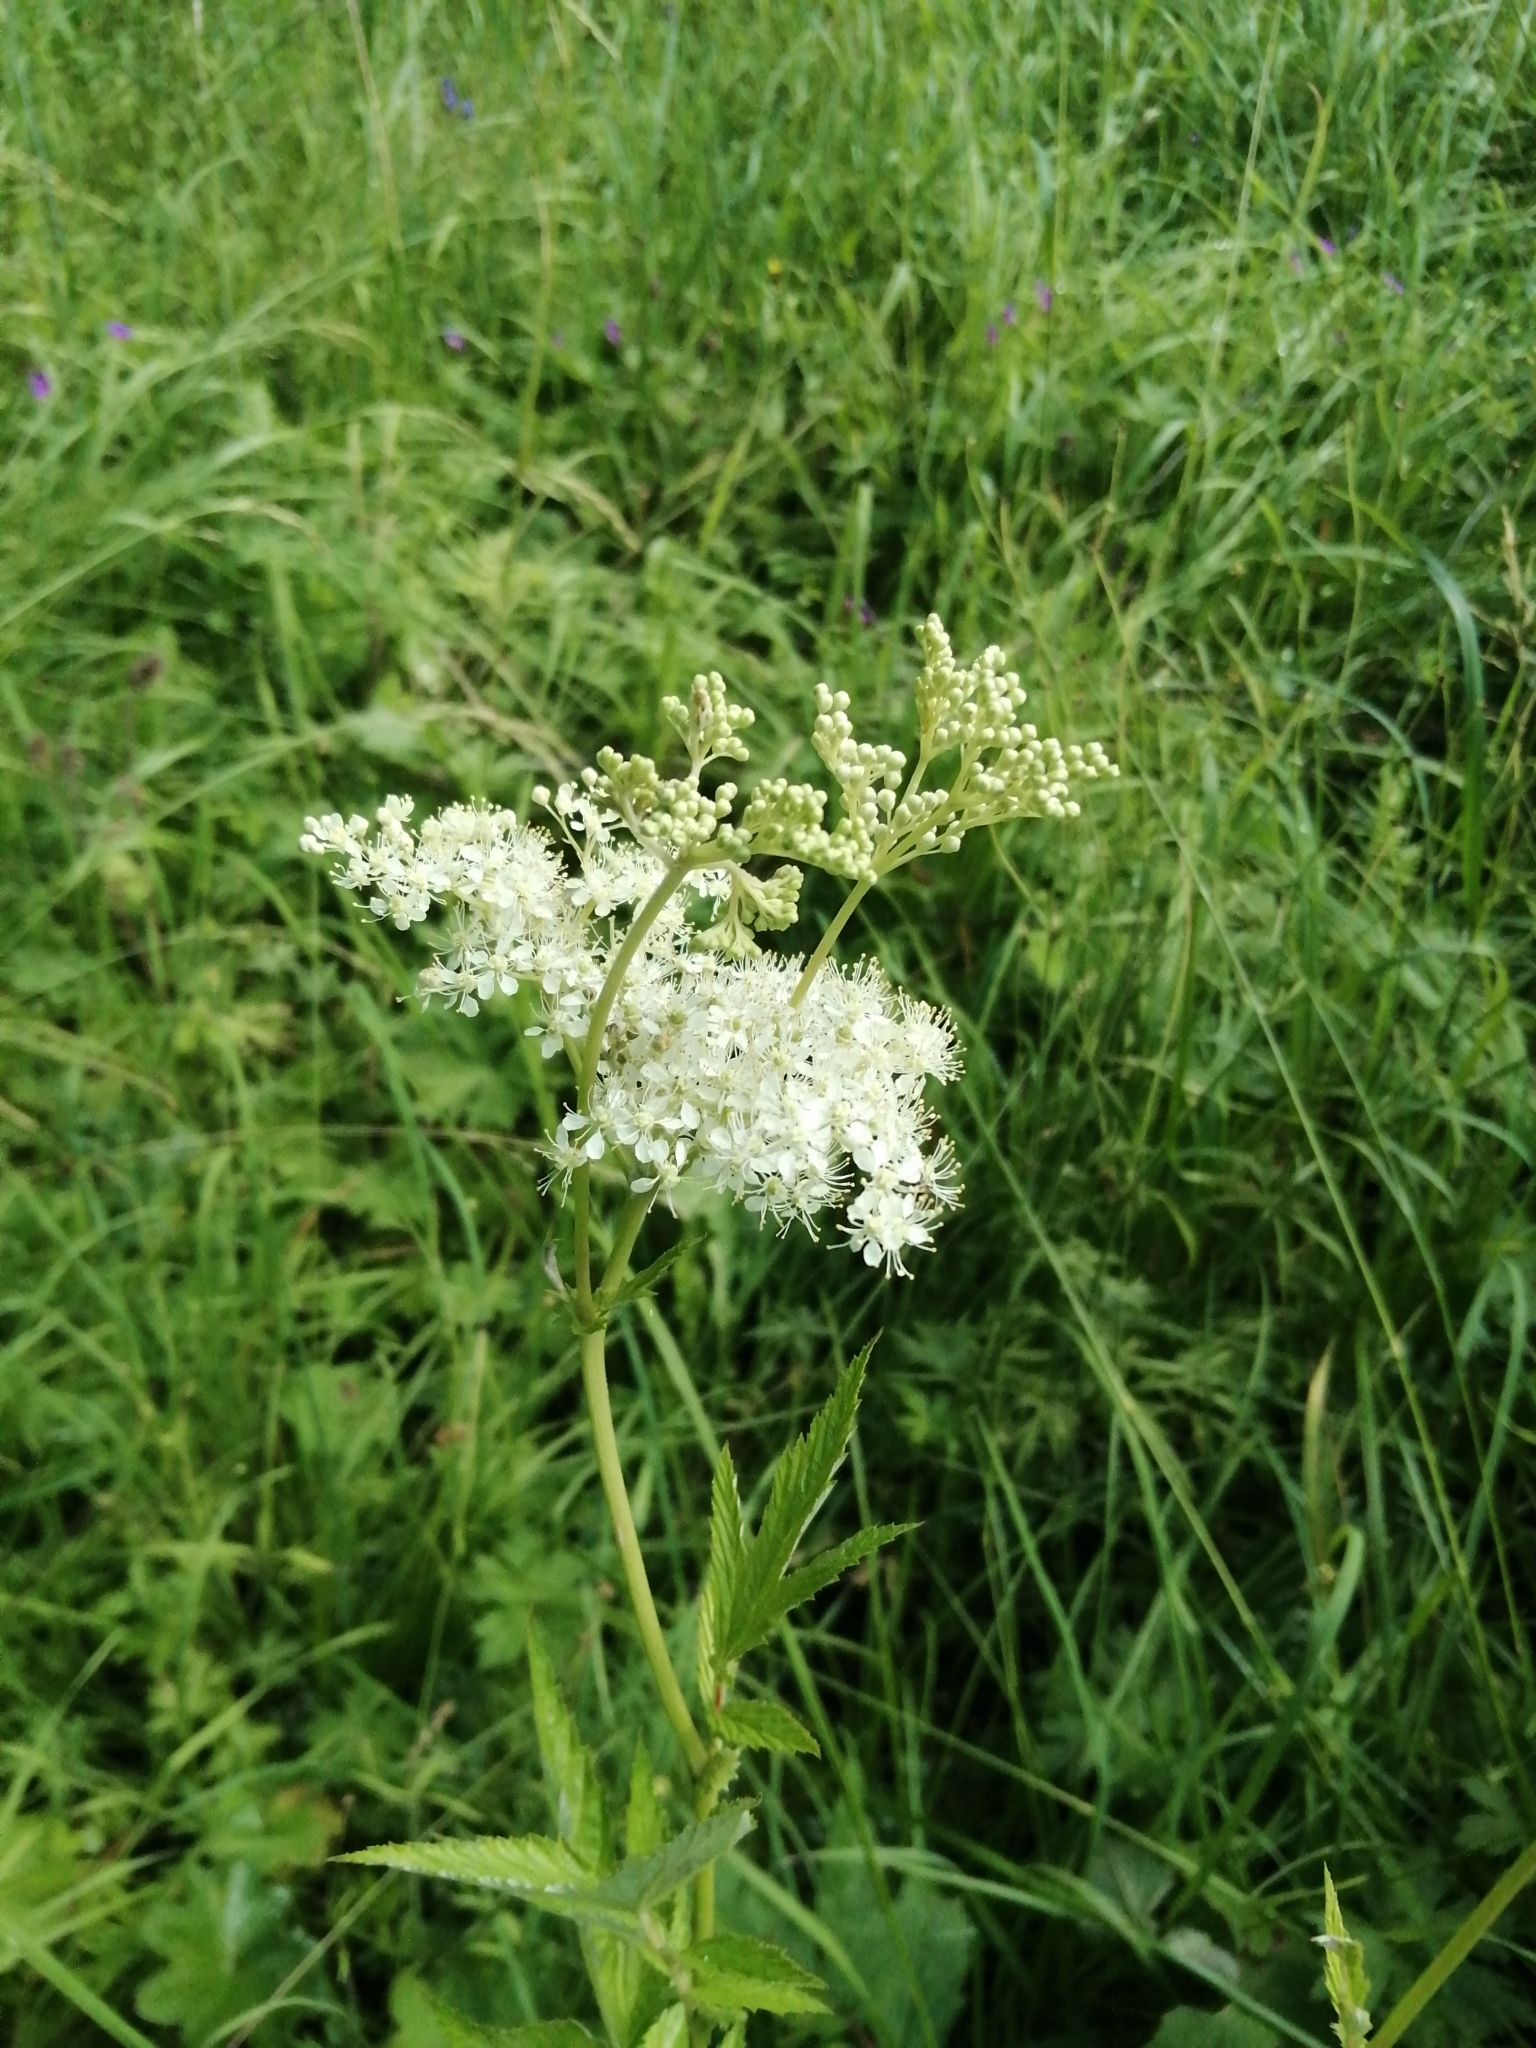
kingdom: Plantae
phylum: Tracheophyta
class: Magnoliopsida
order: Rosales
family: Rosaceae
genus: Filipendula
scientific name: Filipendula ulmaria
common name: Meadowsweet
